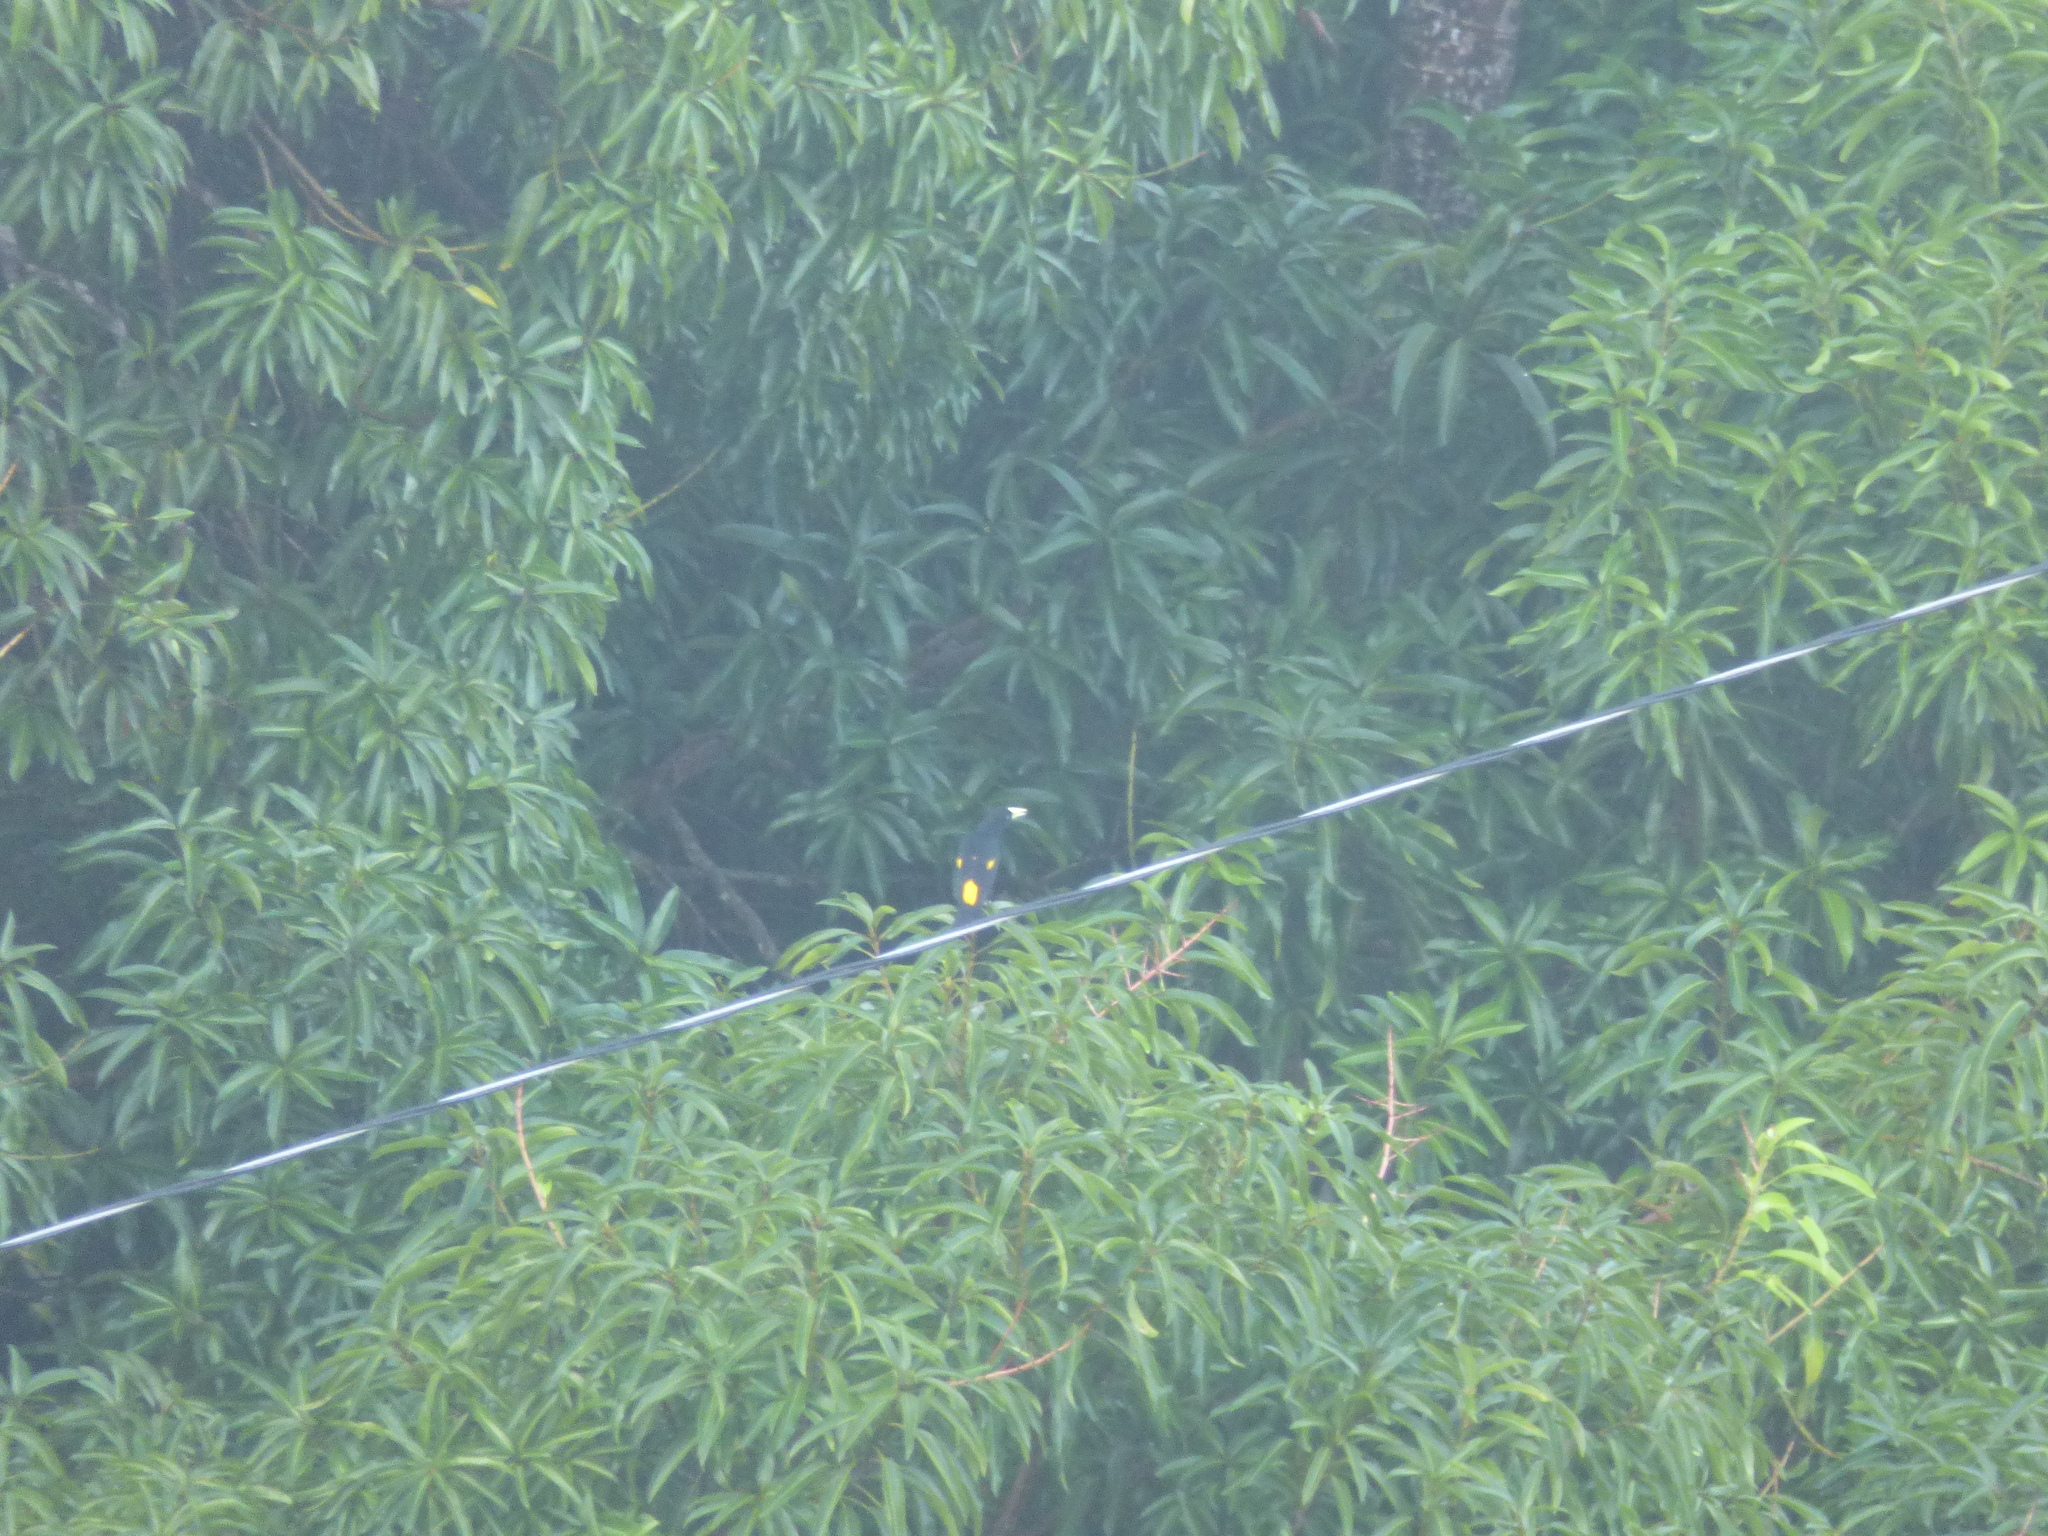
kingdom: Animalia
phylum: Chordata
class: Aves
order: Passeriformes
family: Icteridae
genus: Cacicus
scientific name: Cacicus cela
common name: Yellow-rumped cacique
